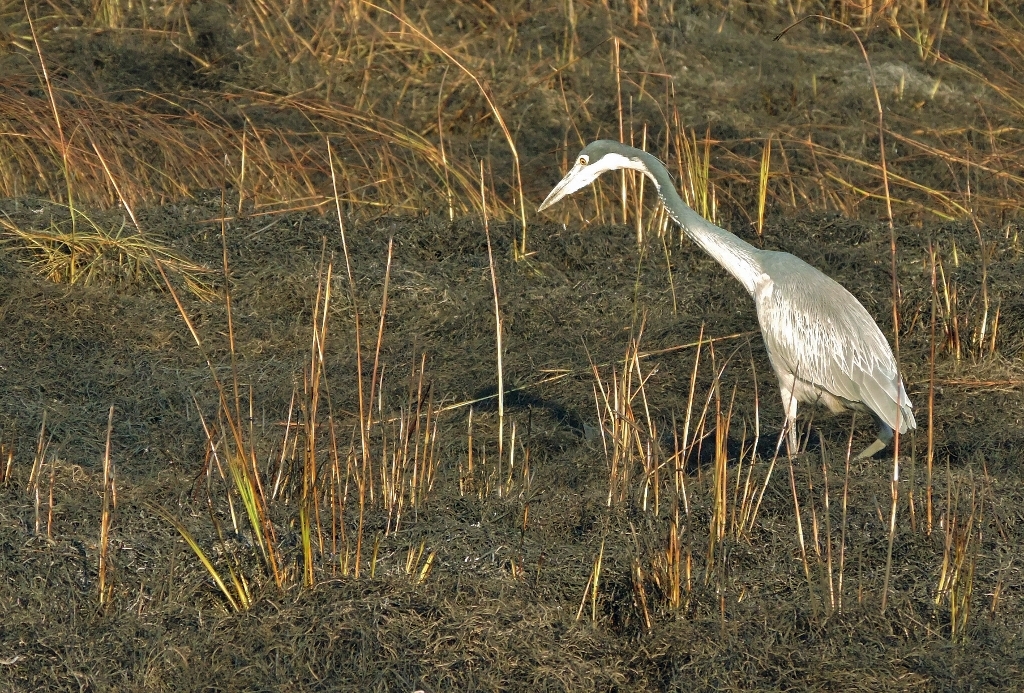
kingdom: Animalia
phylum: Chordata
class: Aves
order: Pelecaniformes
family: Ardeidae
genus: Ardea
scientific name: Ardea melanocephala
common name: Black-headed heron
